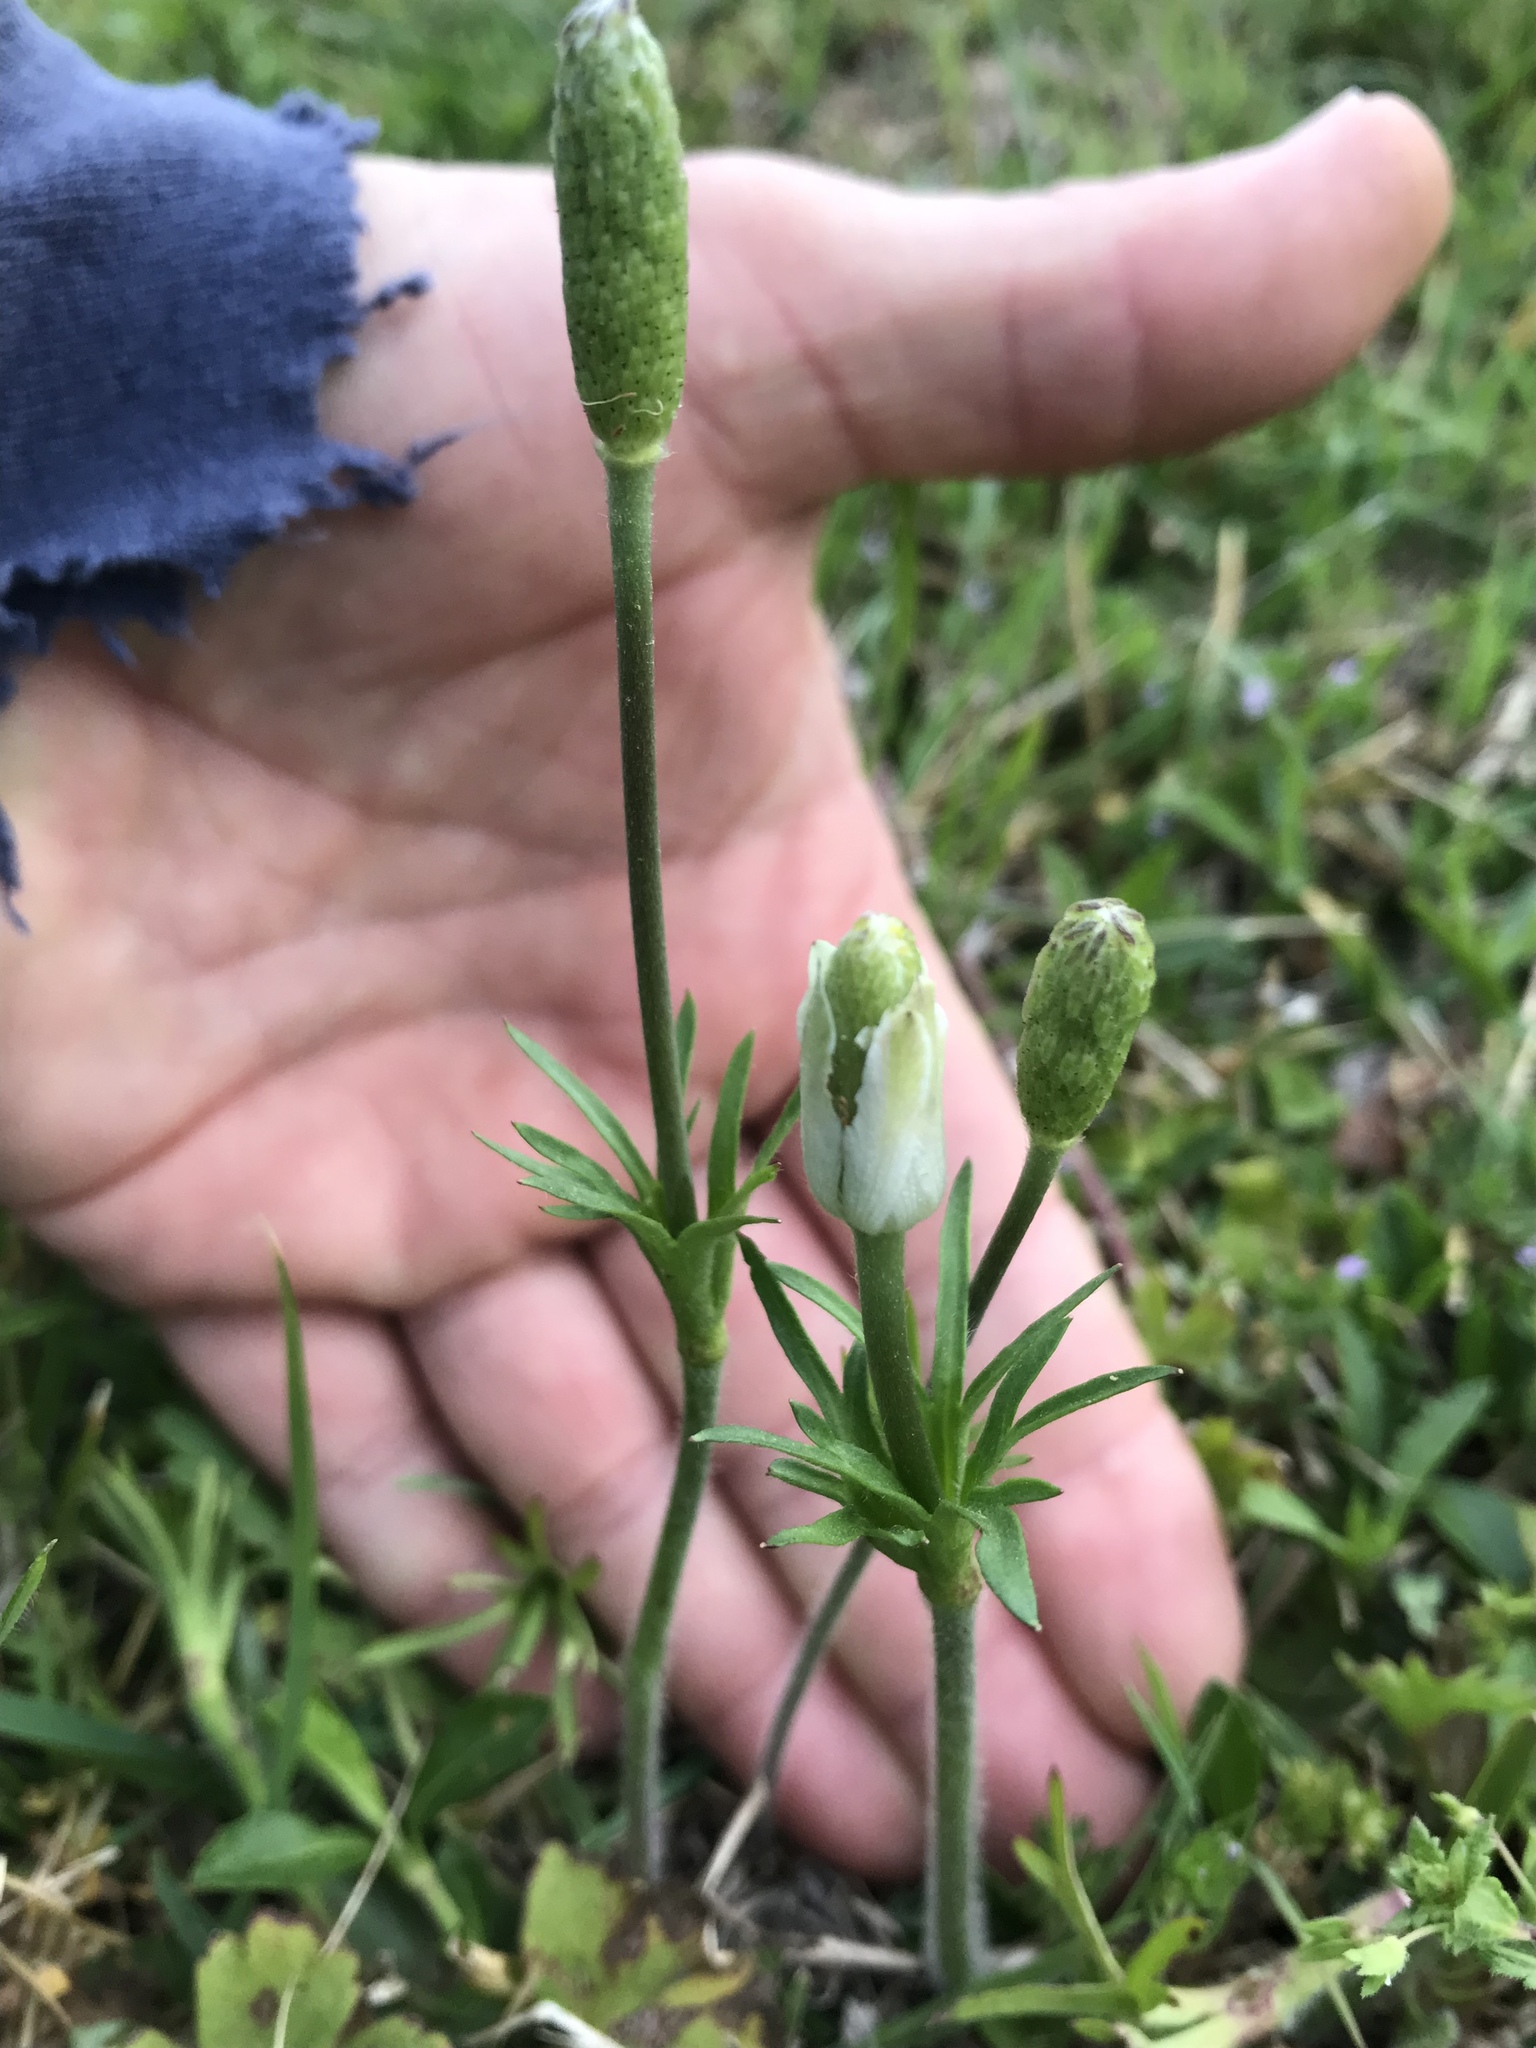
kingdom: Plantae
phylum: Tracheophyta
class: Magnoliopsida
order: Ranunculales
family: Ranunculaceae
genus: Anemone
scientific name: Anemone berlandieri
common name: Ten-petal anemone
